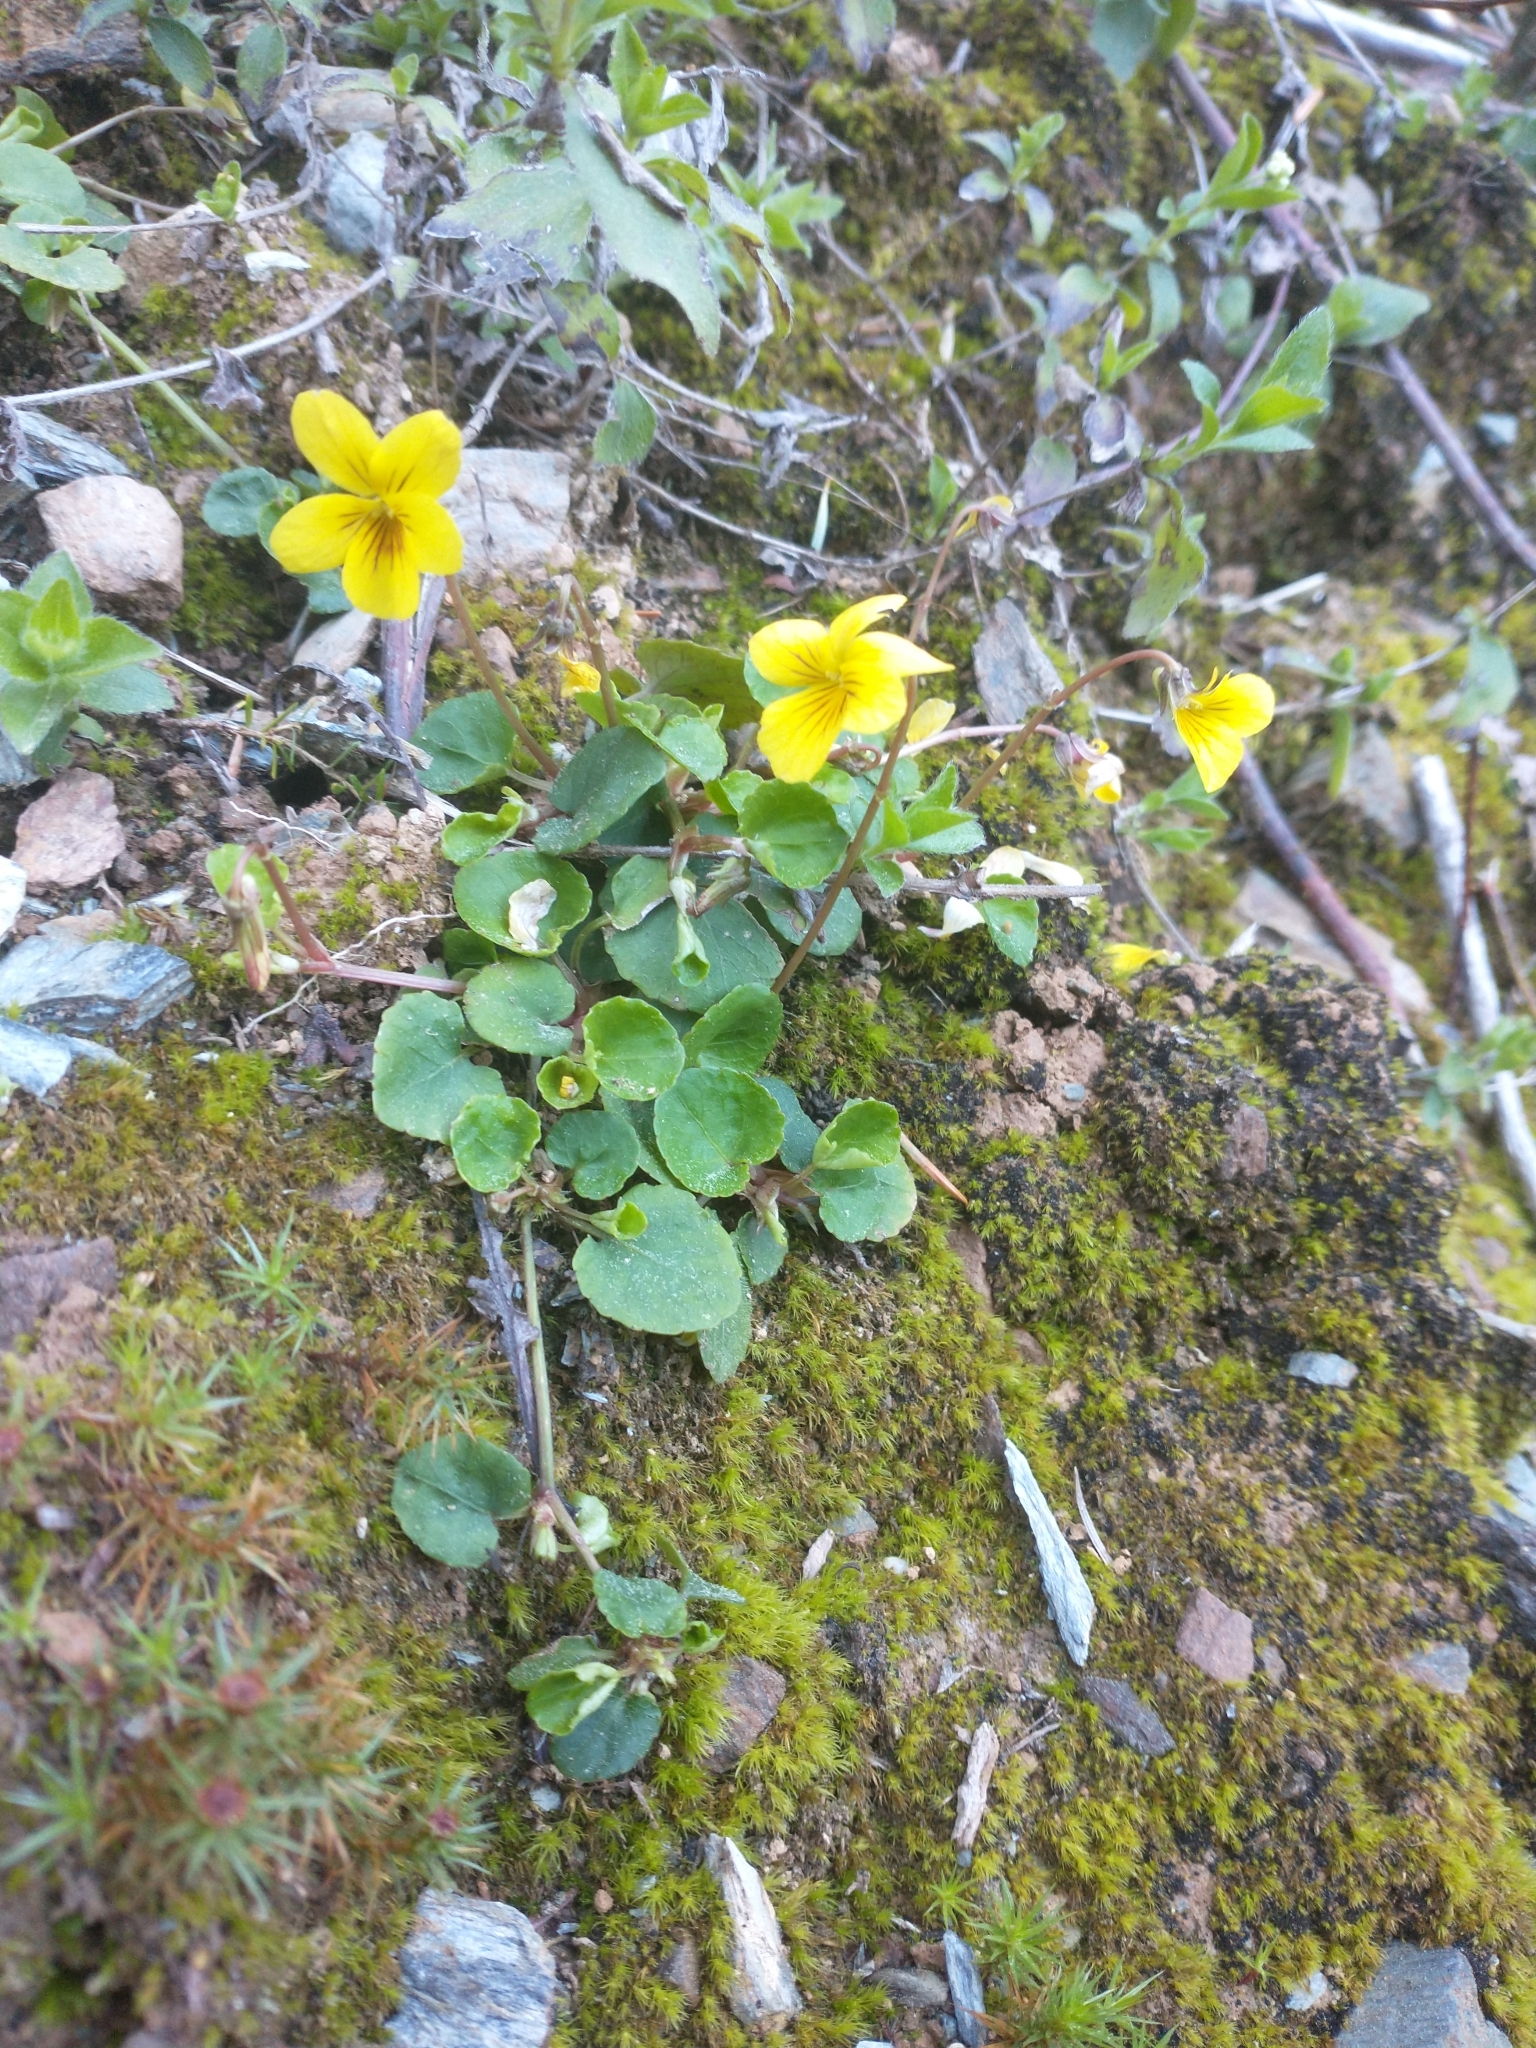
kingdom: Plantae
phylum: Tracheophyta
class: Magnoliopsida
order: Malpighiales
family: Violaceae
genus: Viola
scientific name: Viola sempervirens
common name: Evergreen violet
